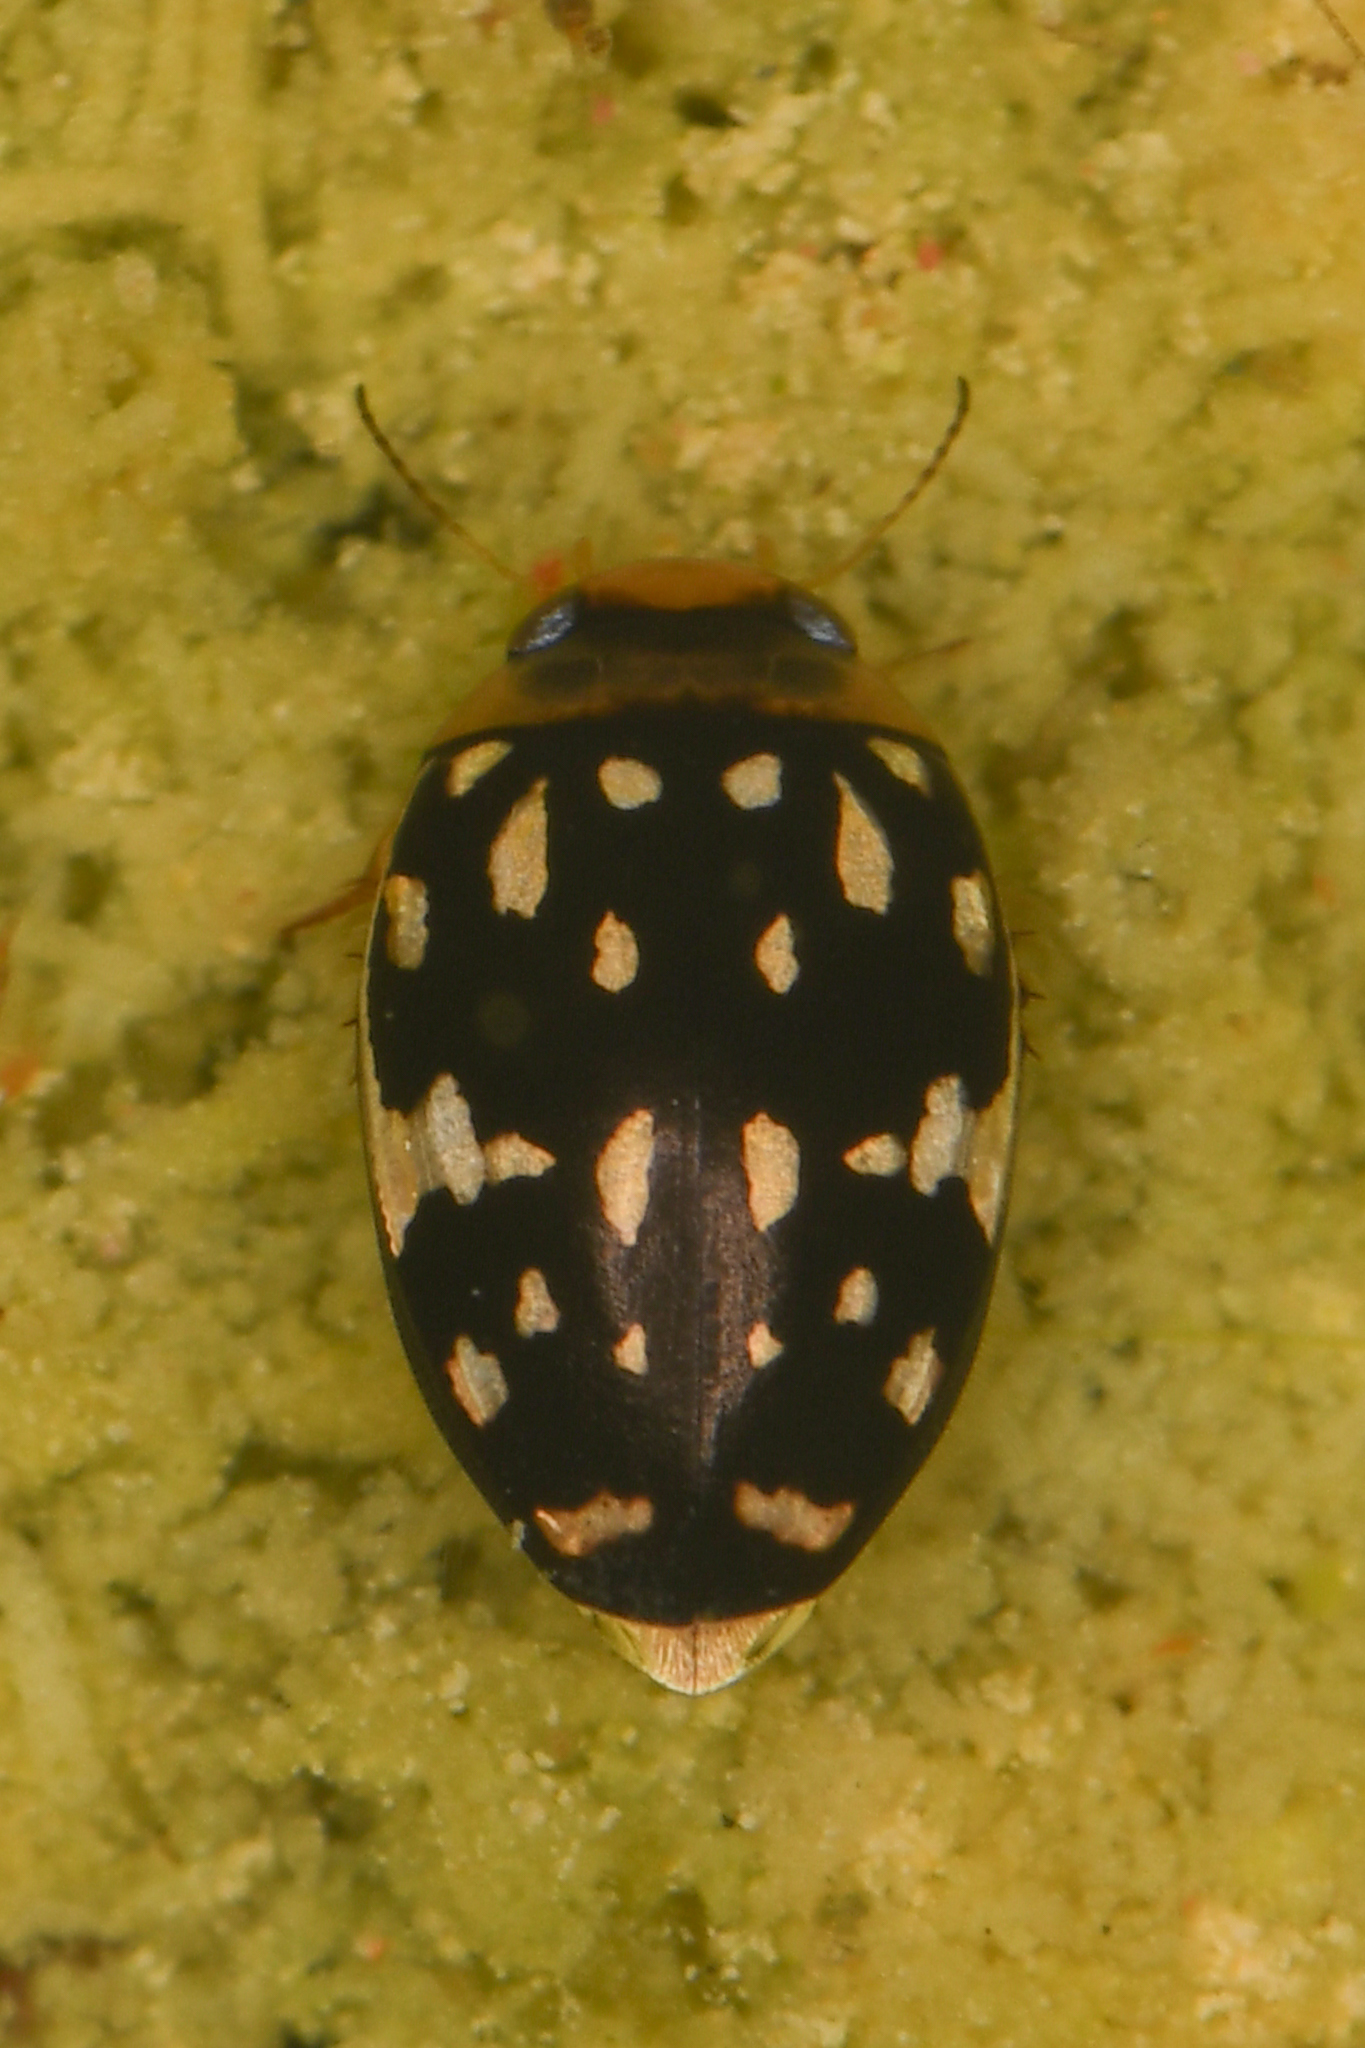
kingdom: Animalia
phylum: Arthropoda
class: Insecta
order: Coleoptera
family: Dytiscidae
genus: Laccophilus
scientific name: Laccophilus pictus
